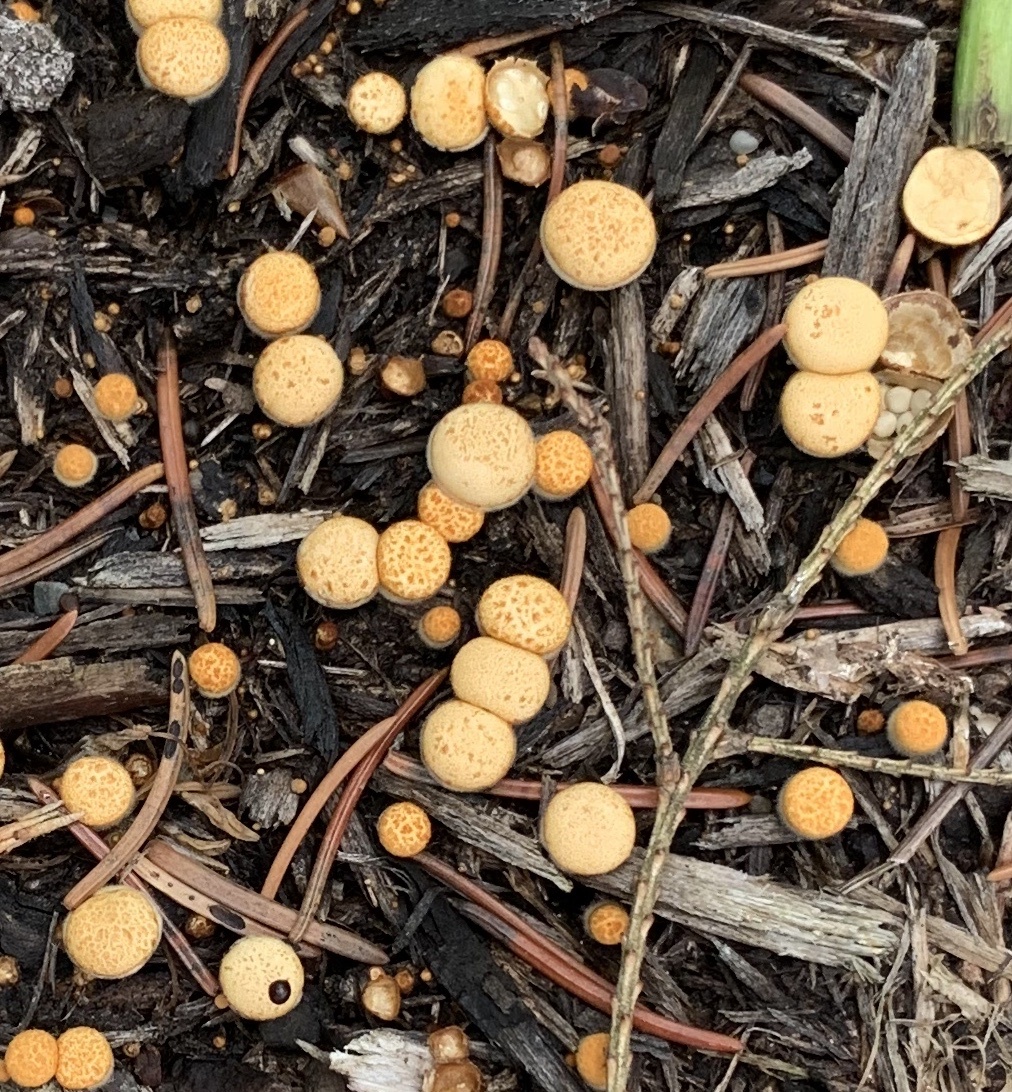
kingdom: Fungi
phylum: Basidiomycota
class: Agaricomycetes
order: Agaricales
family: Nidulariaceae
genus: Crucibulum
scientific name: Crucibulum laeve
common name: Common bird's nest
